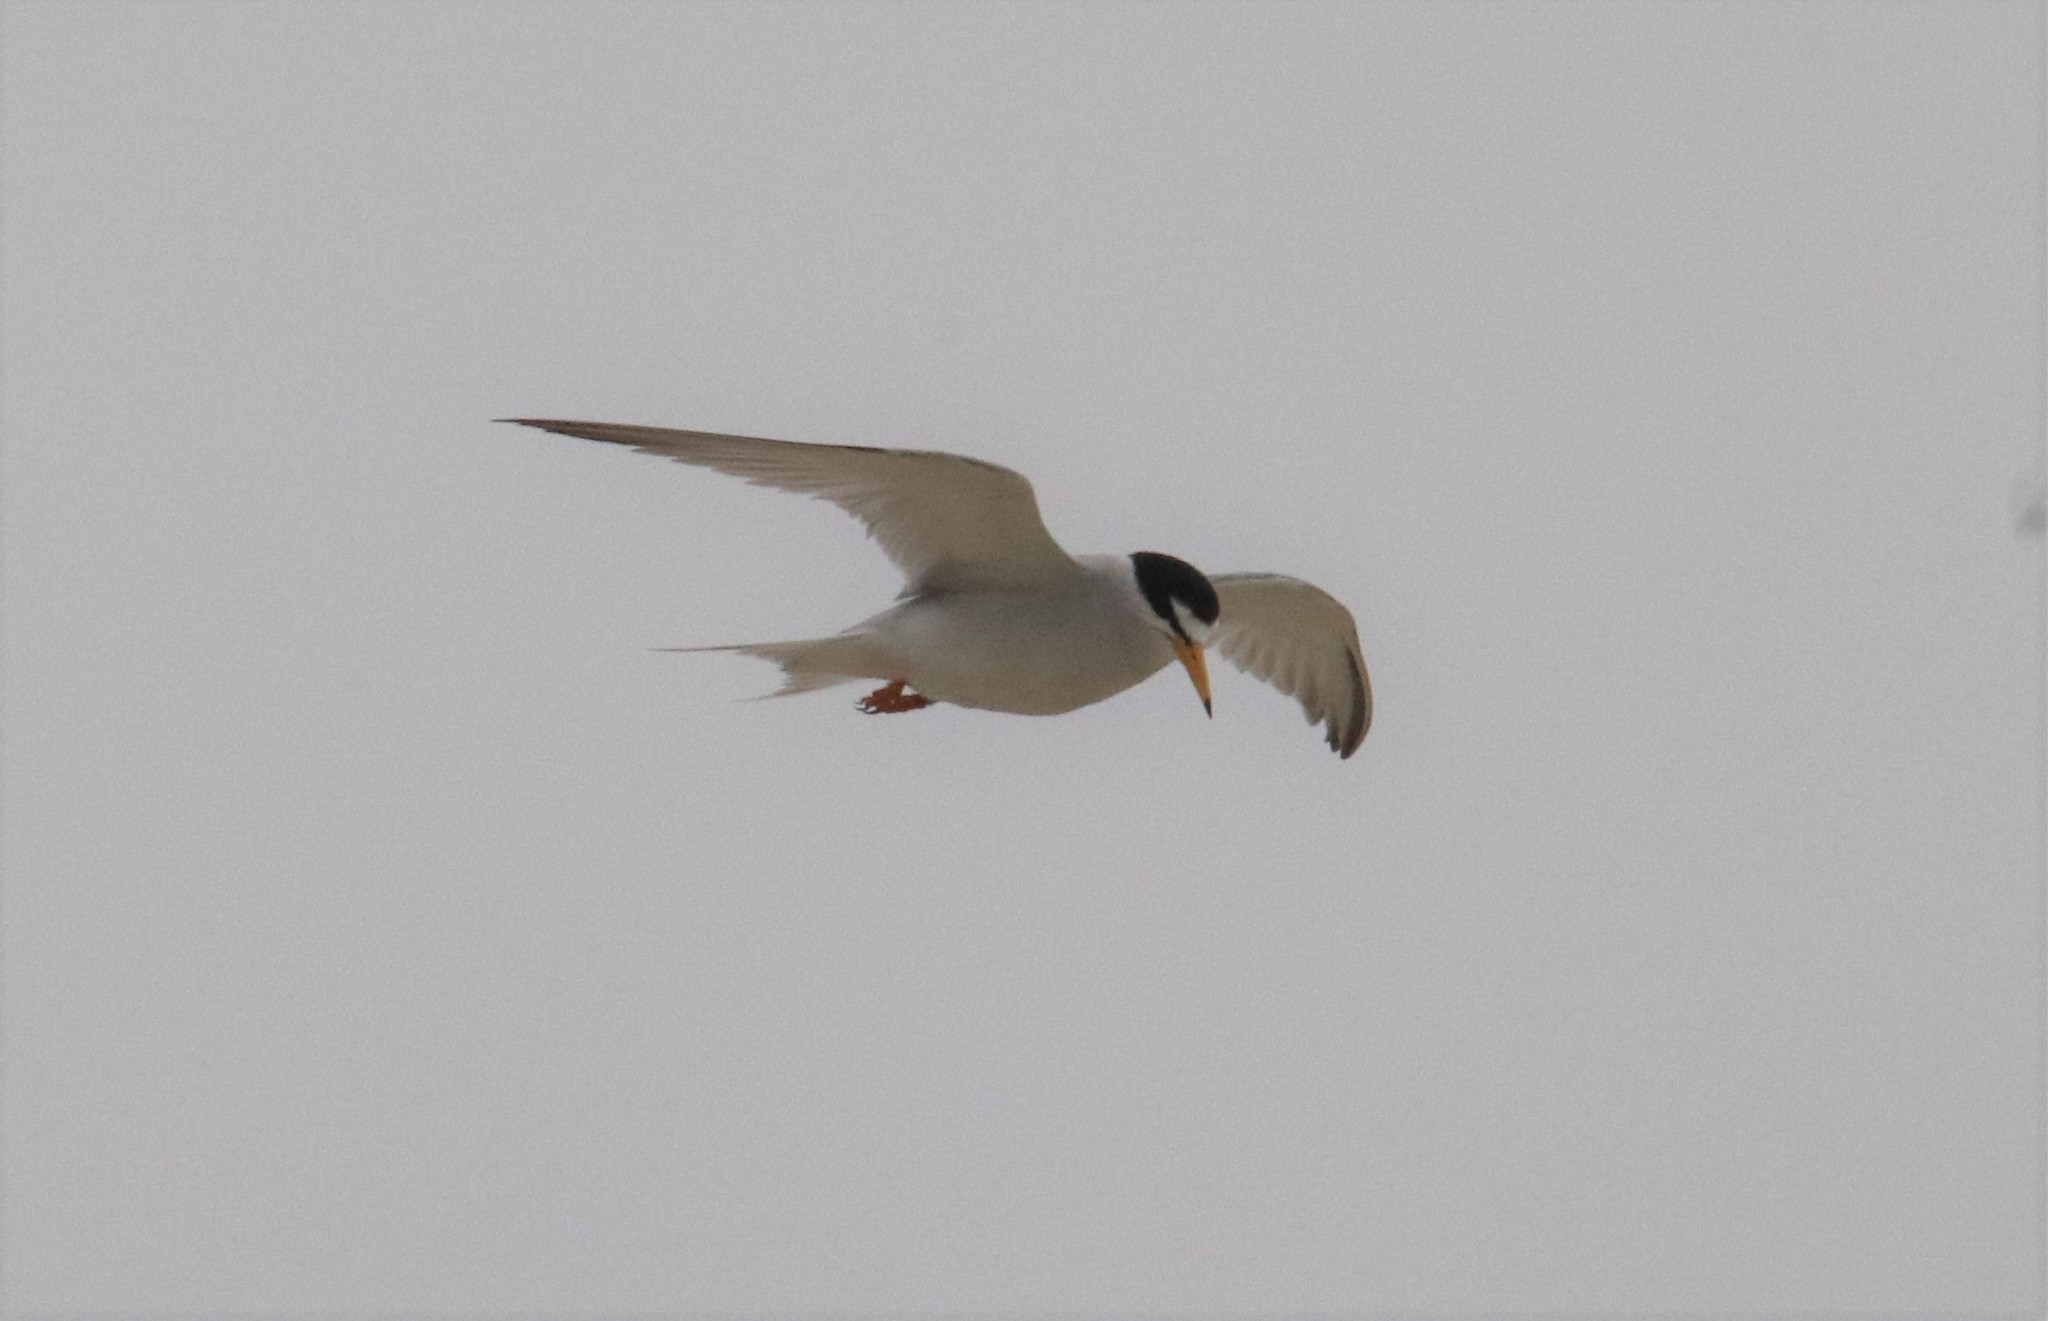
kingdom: Animalia
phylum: Chordata
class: Aves
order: Charadriiformes
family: Laridae
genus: Sternula
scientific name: Sternula antillarum
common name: Least tern
